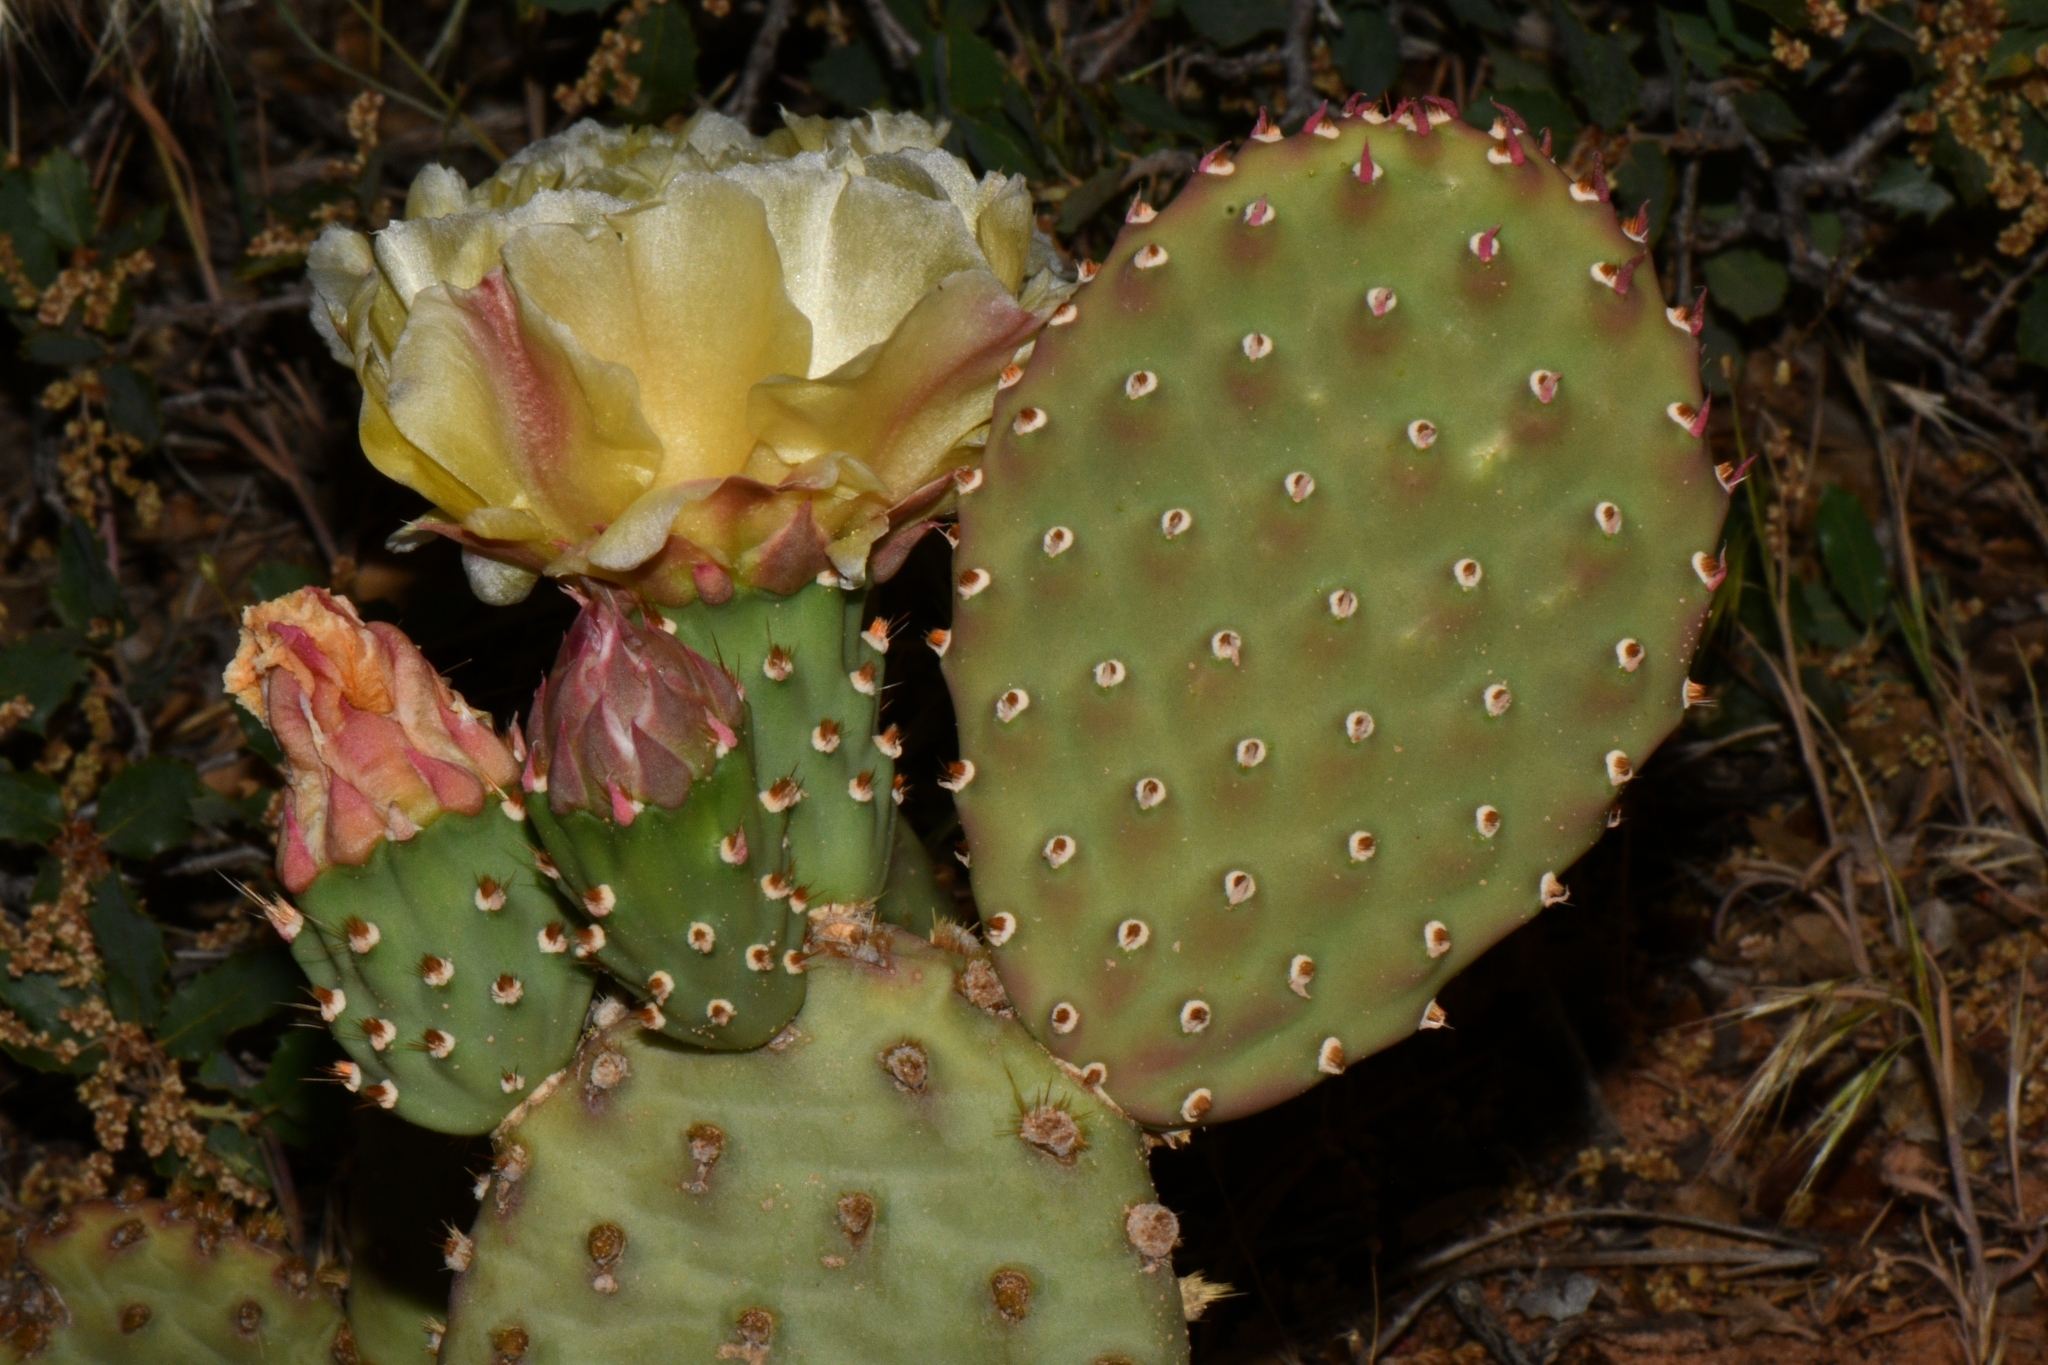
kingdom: Plantae
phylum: Tracheophyta
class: Magnoliopsida
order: Caryophyllales
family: Cactaceae
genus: Opuntia
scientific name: Opuntia aurea
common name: Golden prickly-pear
